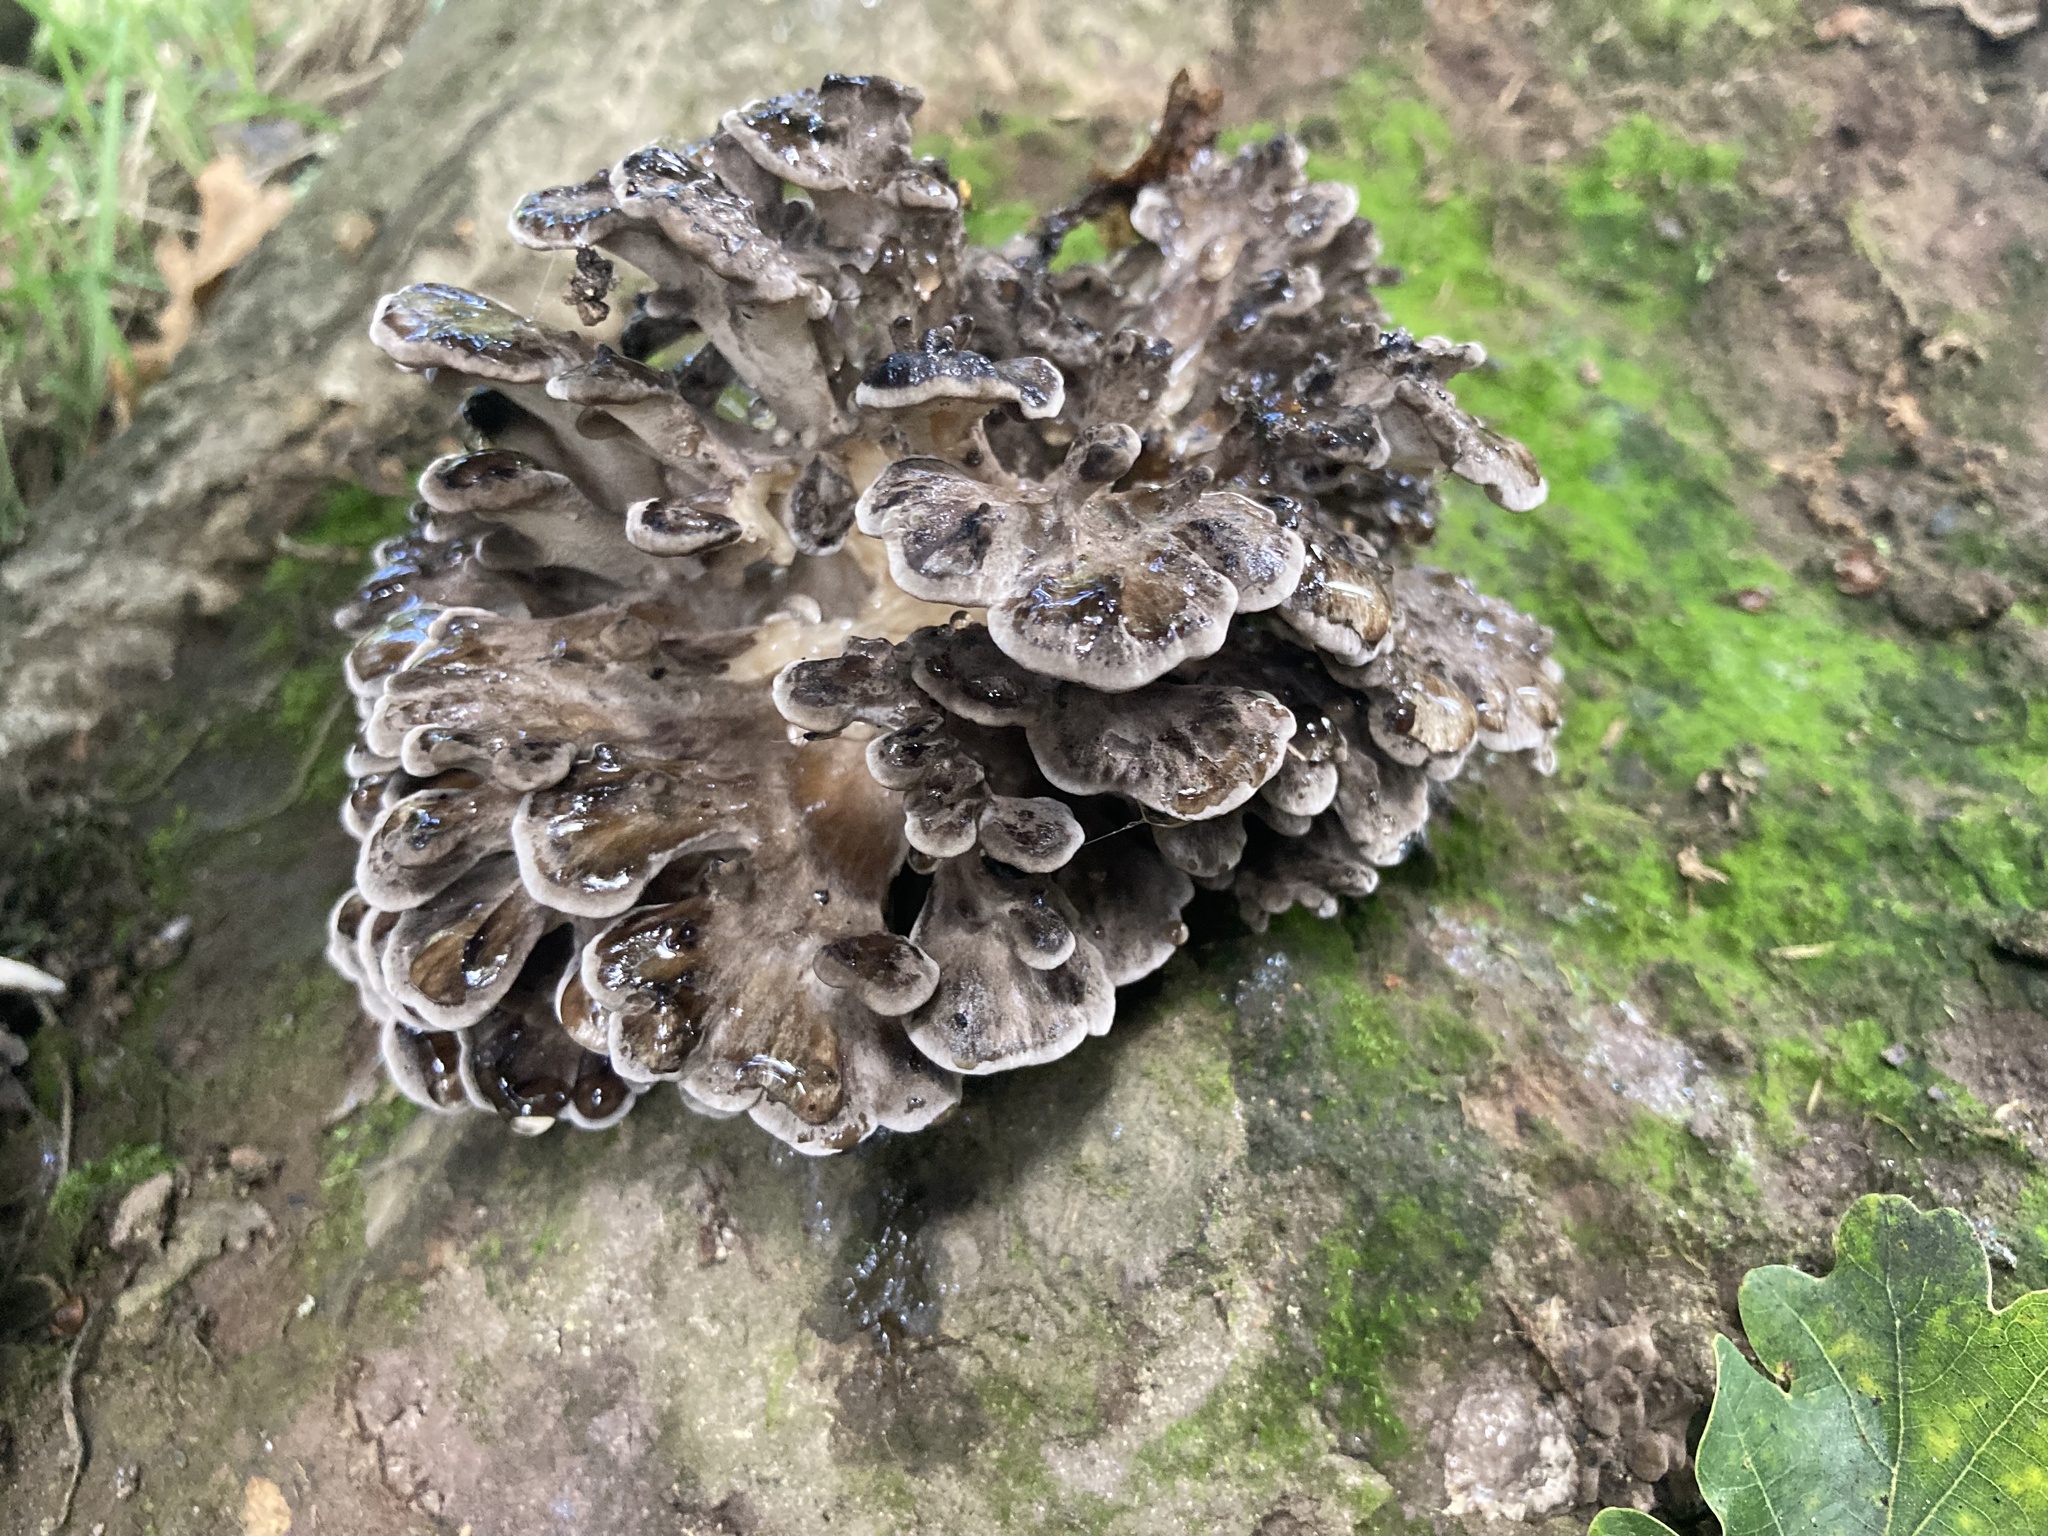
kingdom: Fungi
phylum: Basidiomycota
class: Agaricomycetes
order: Polyporales
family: Grifolaceae
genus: Grifola
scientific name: Grifola frondosa
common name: Hen of the woods
